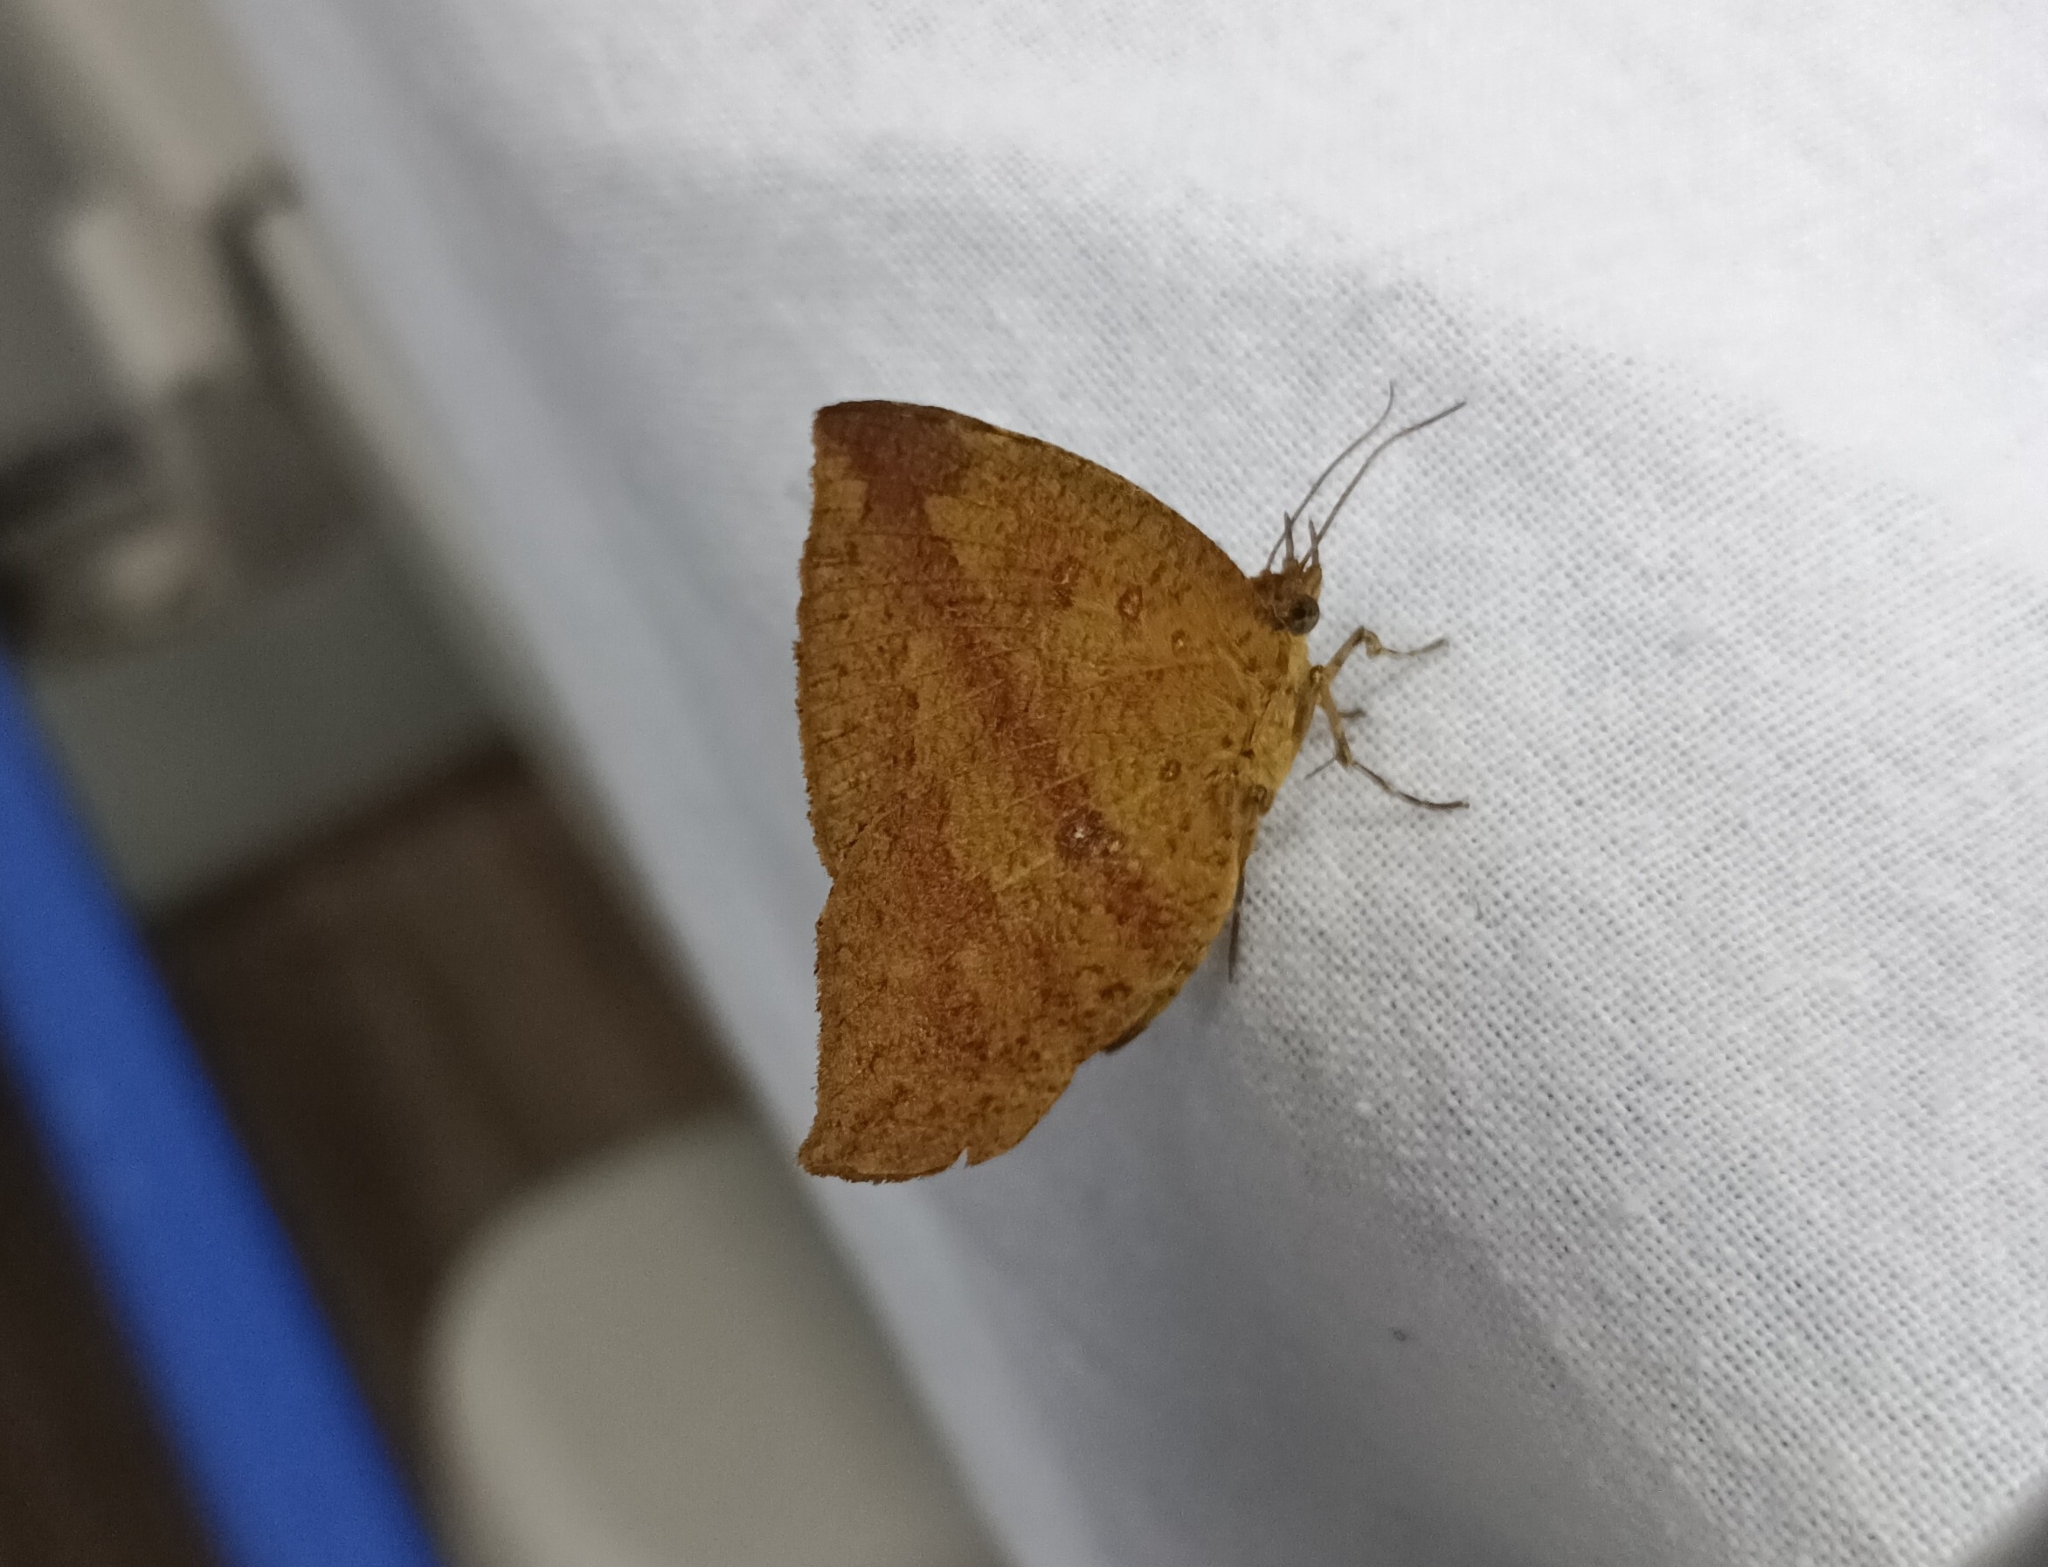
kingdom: Animalia
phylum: Arthropoda
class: Insecta
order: Lepidoptera
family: Callidulidae
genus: Tetragonus
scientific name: Tetragonus catamitus
